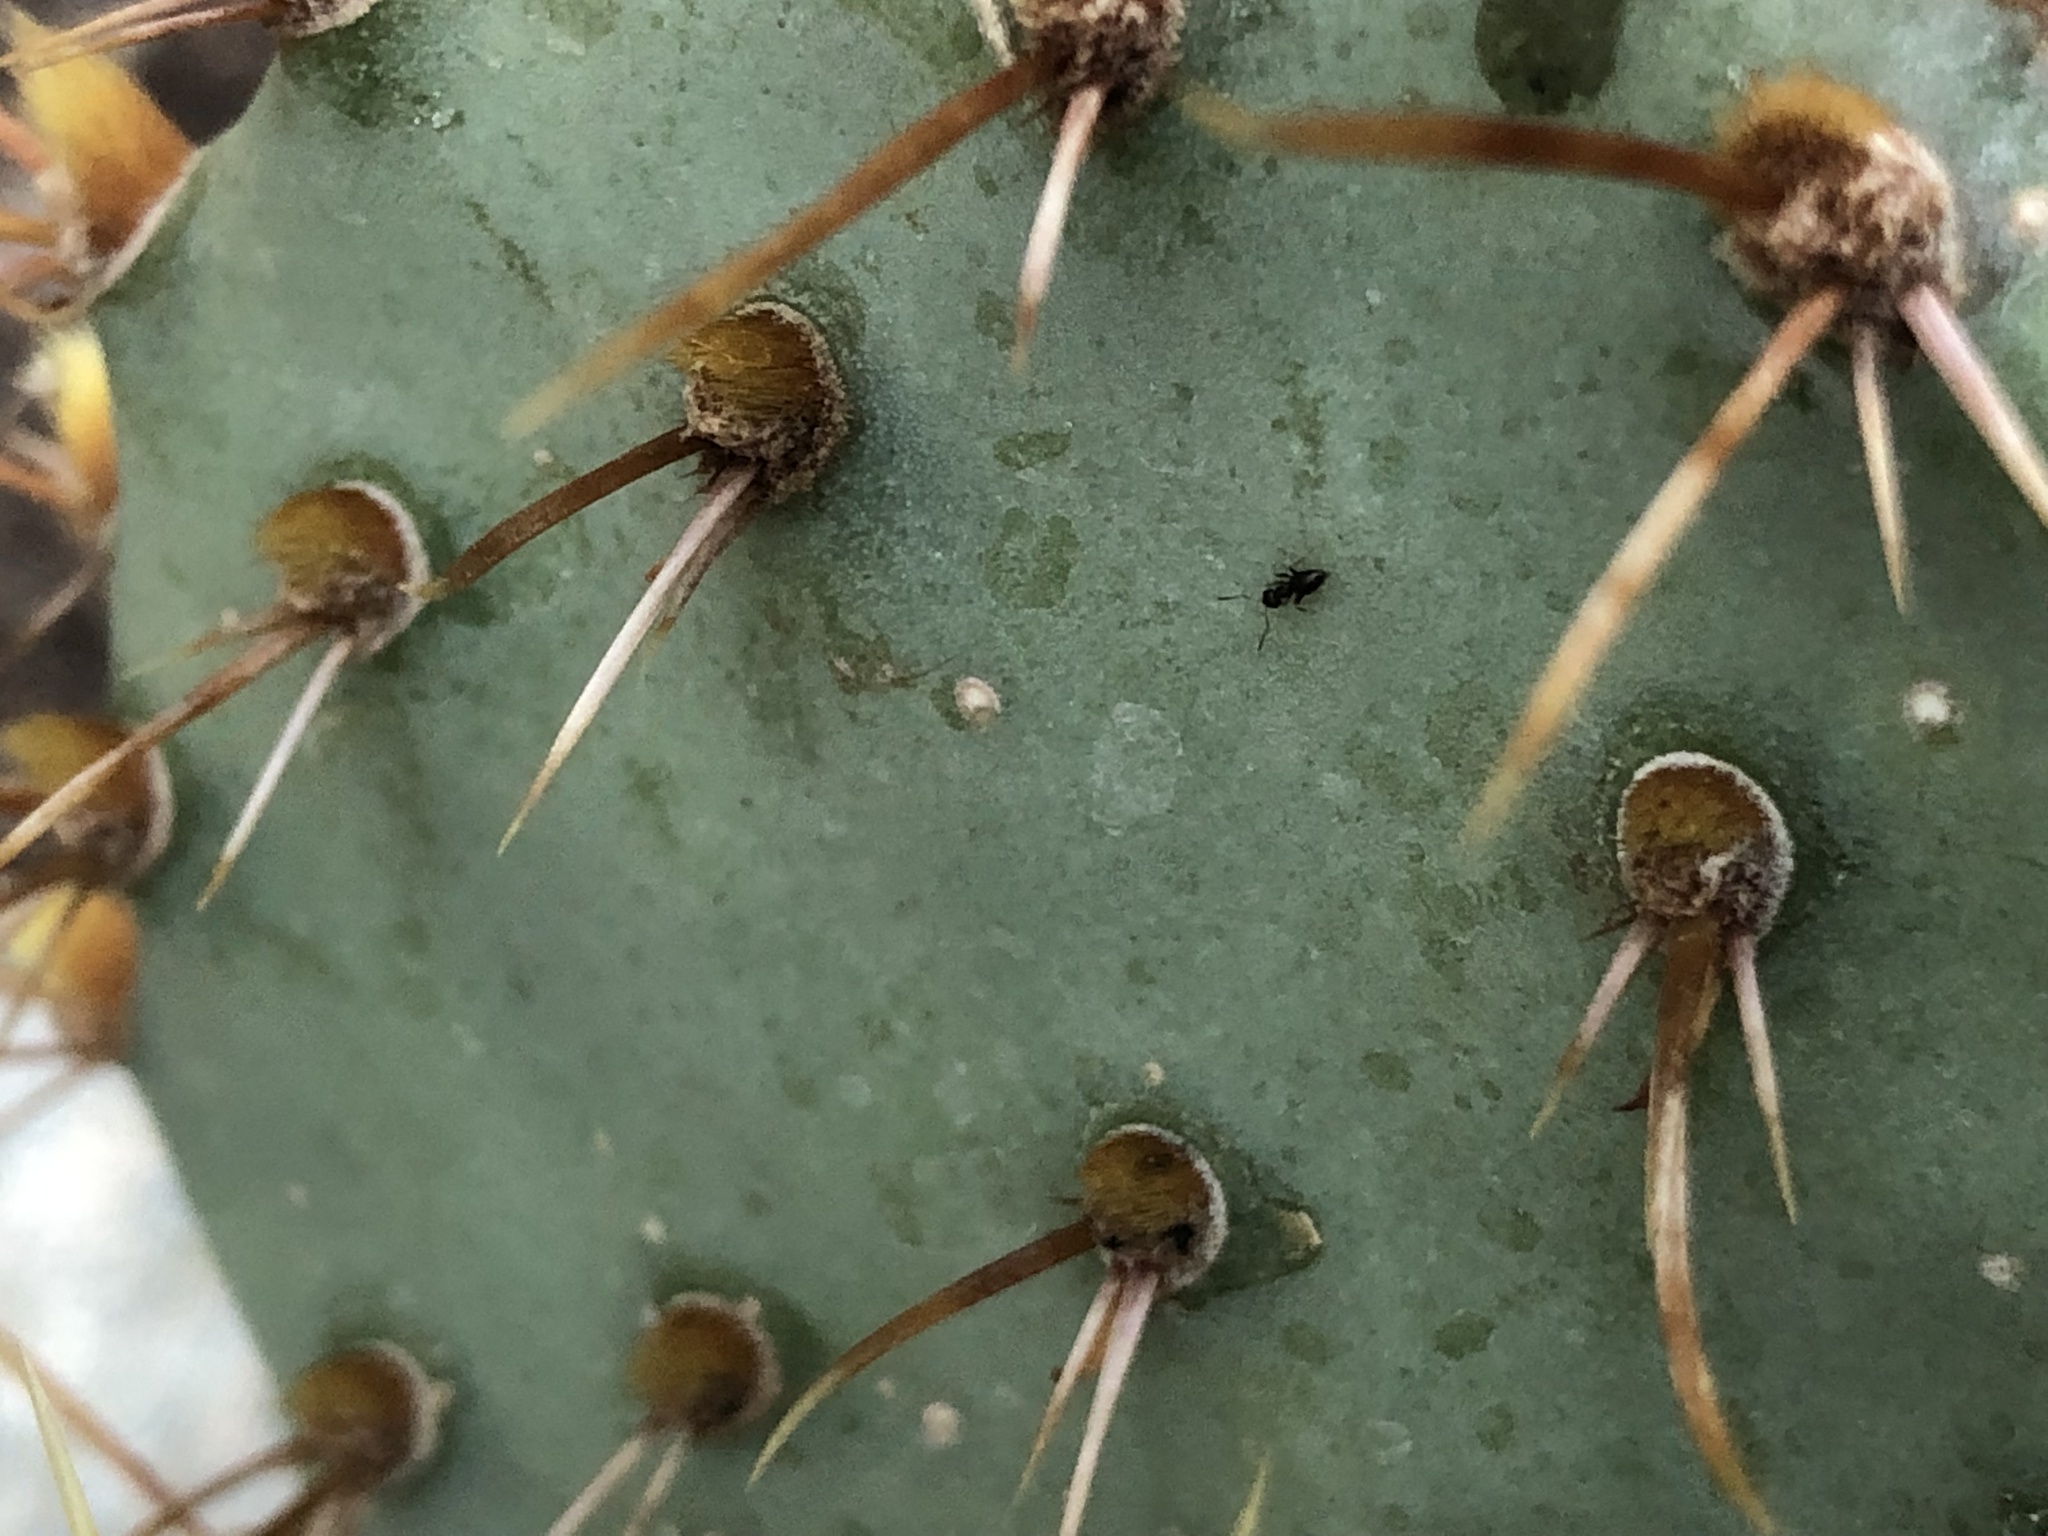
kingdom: Animalia
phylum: Arthropoda
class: Insecta
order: Hymenoptera
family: Formicidae
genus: Brachymyrmex
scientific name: Brachymyrmex patagonicus
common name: Dark rover ant
